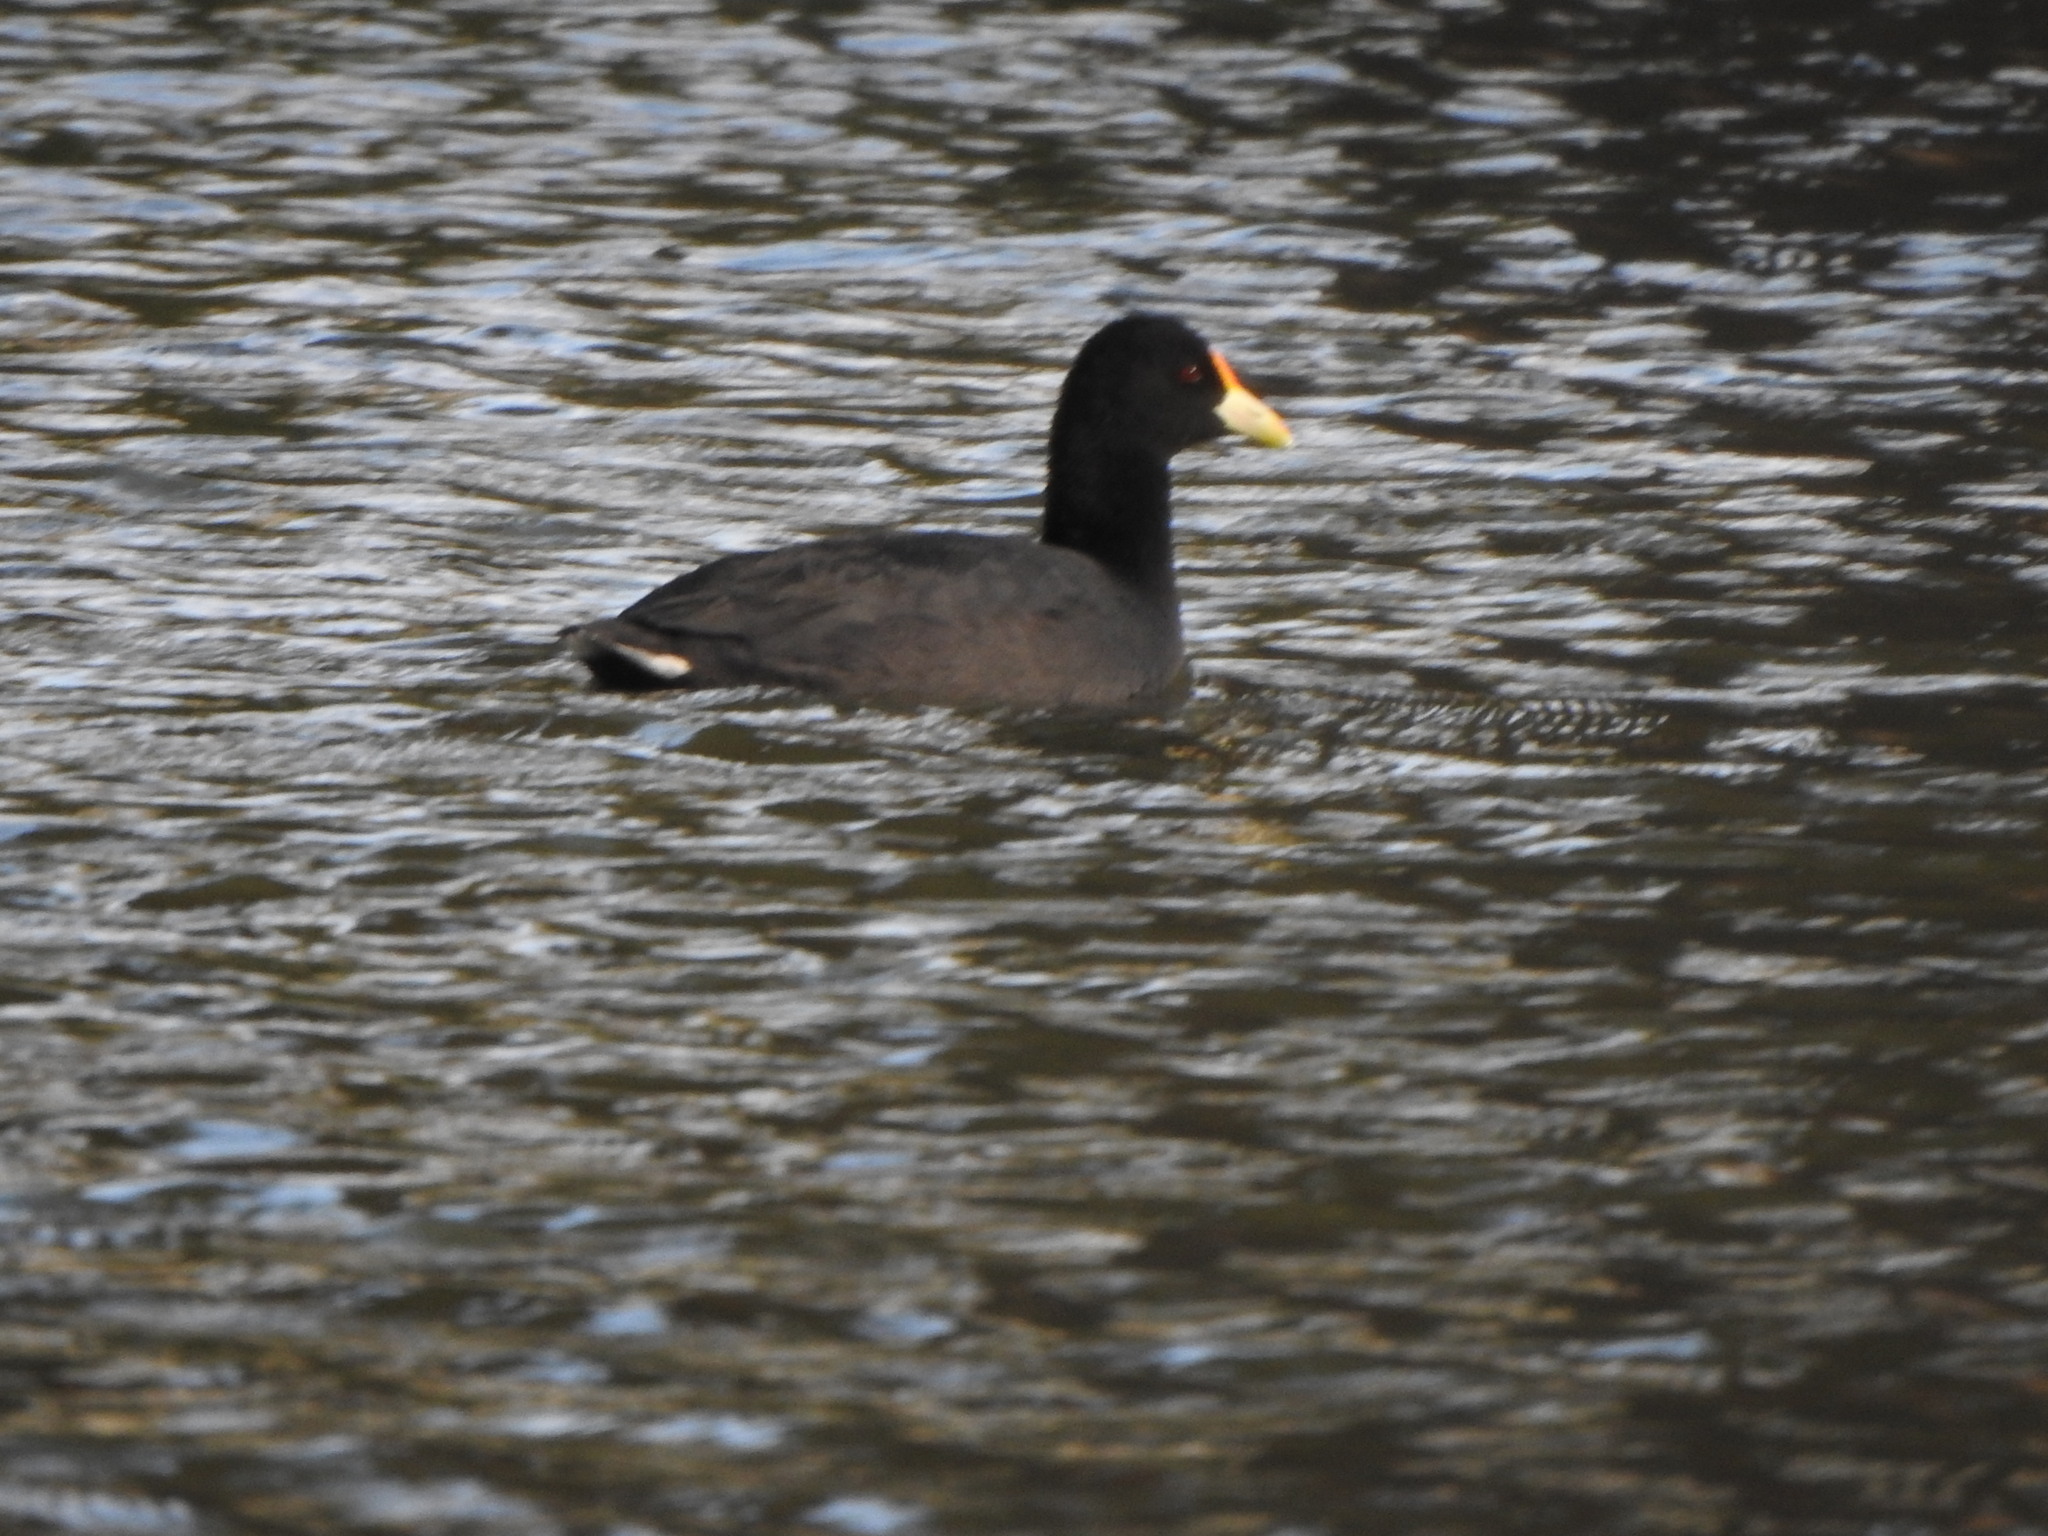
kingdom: Animalia
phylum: Chordata
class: Aves
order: Gruiformes
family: Rallidae
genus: Fulica
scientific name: Fulica leucoptera
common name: White-winged coot
